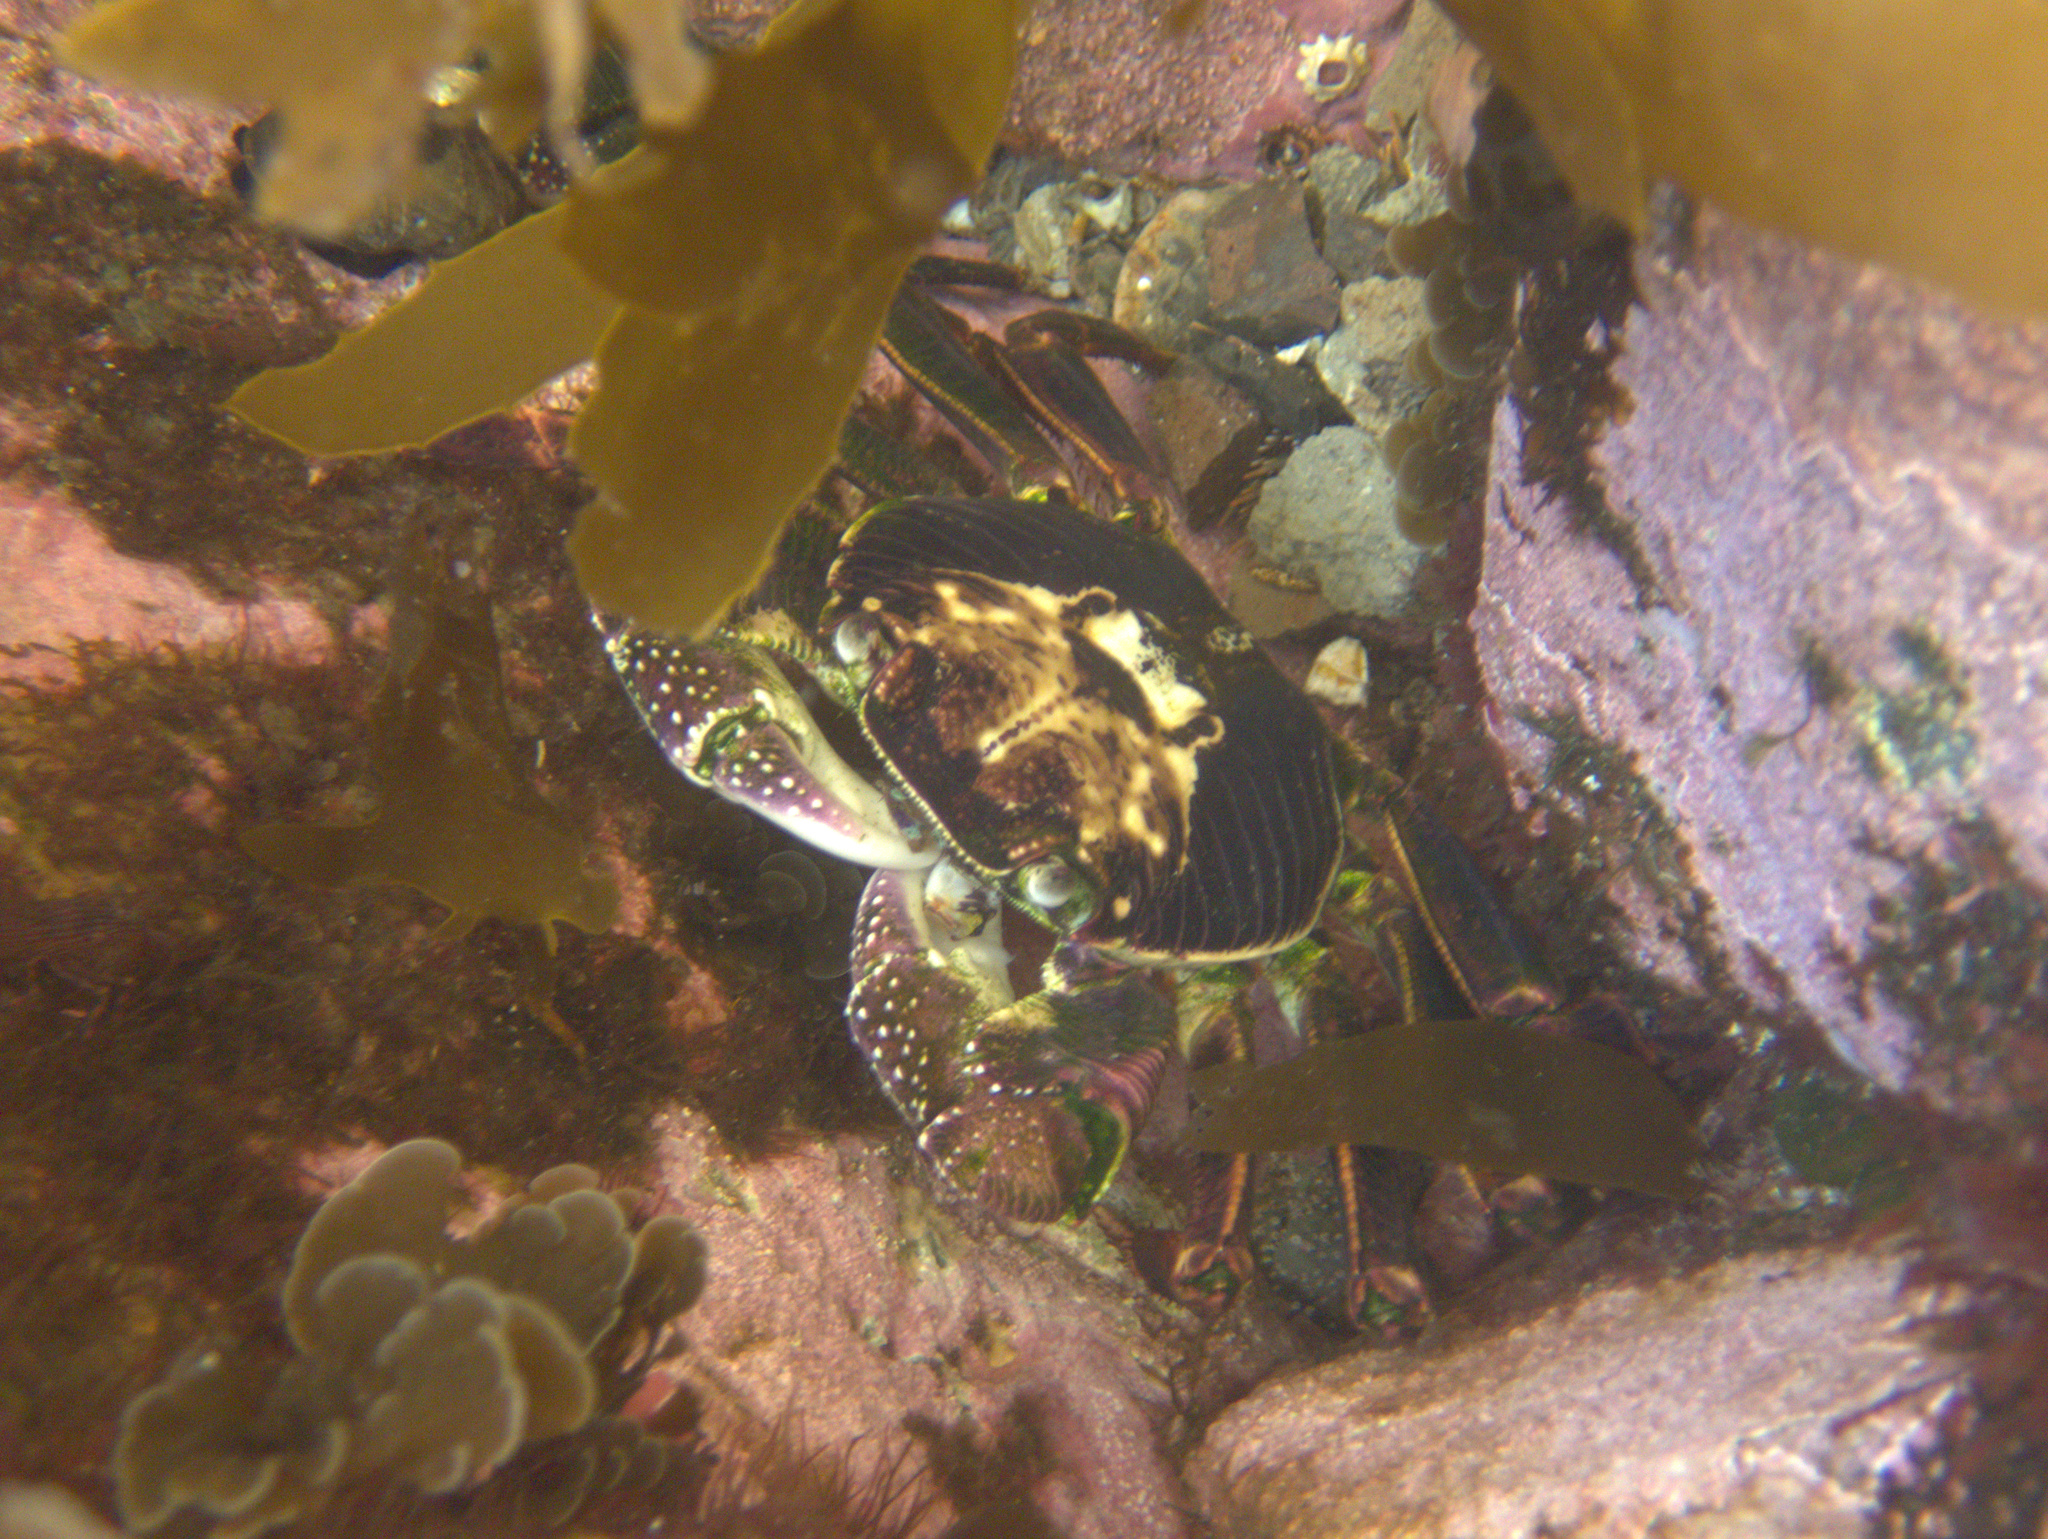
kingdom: Animalia
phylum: Arthropoda
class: Malacostraca
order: Decapoda
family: Grapsidae
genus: Leptograpsus
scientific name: Leptograpsus variegatus
